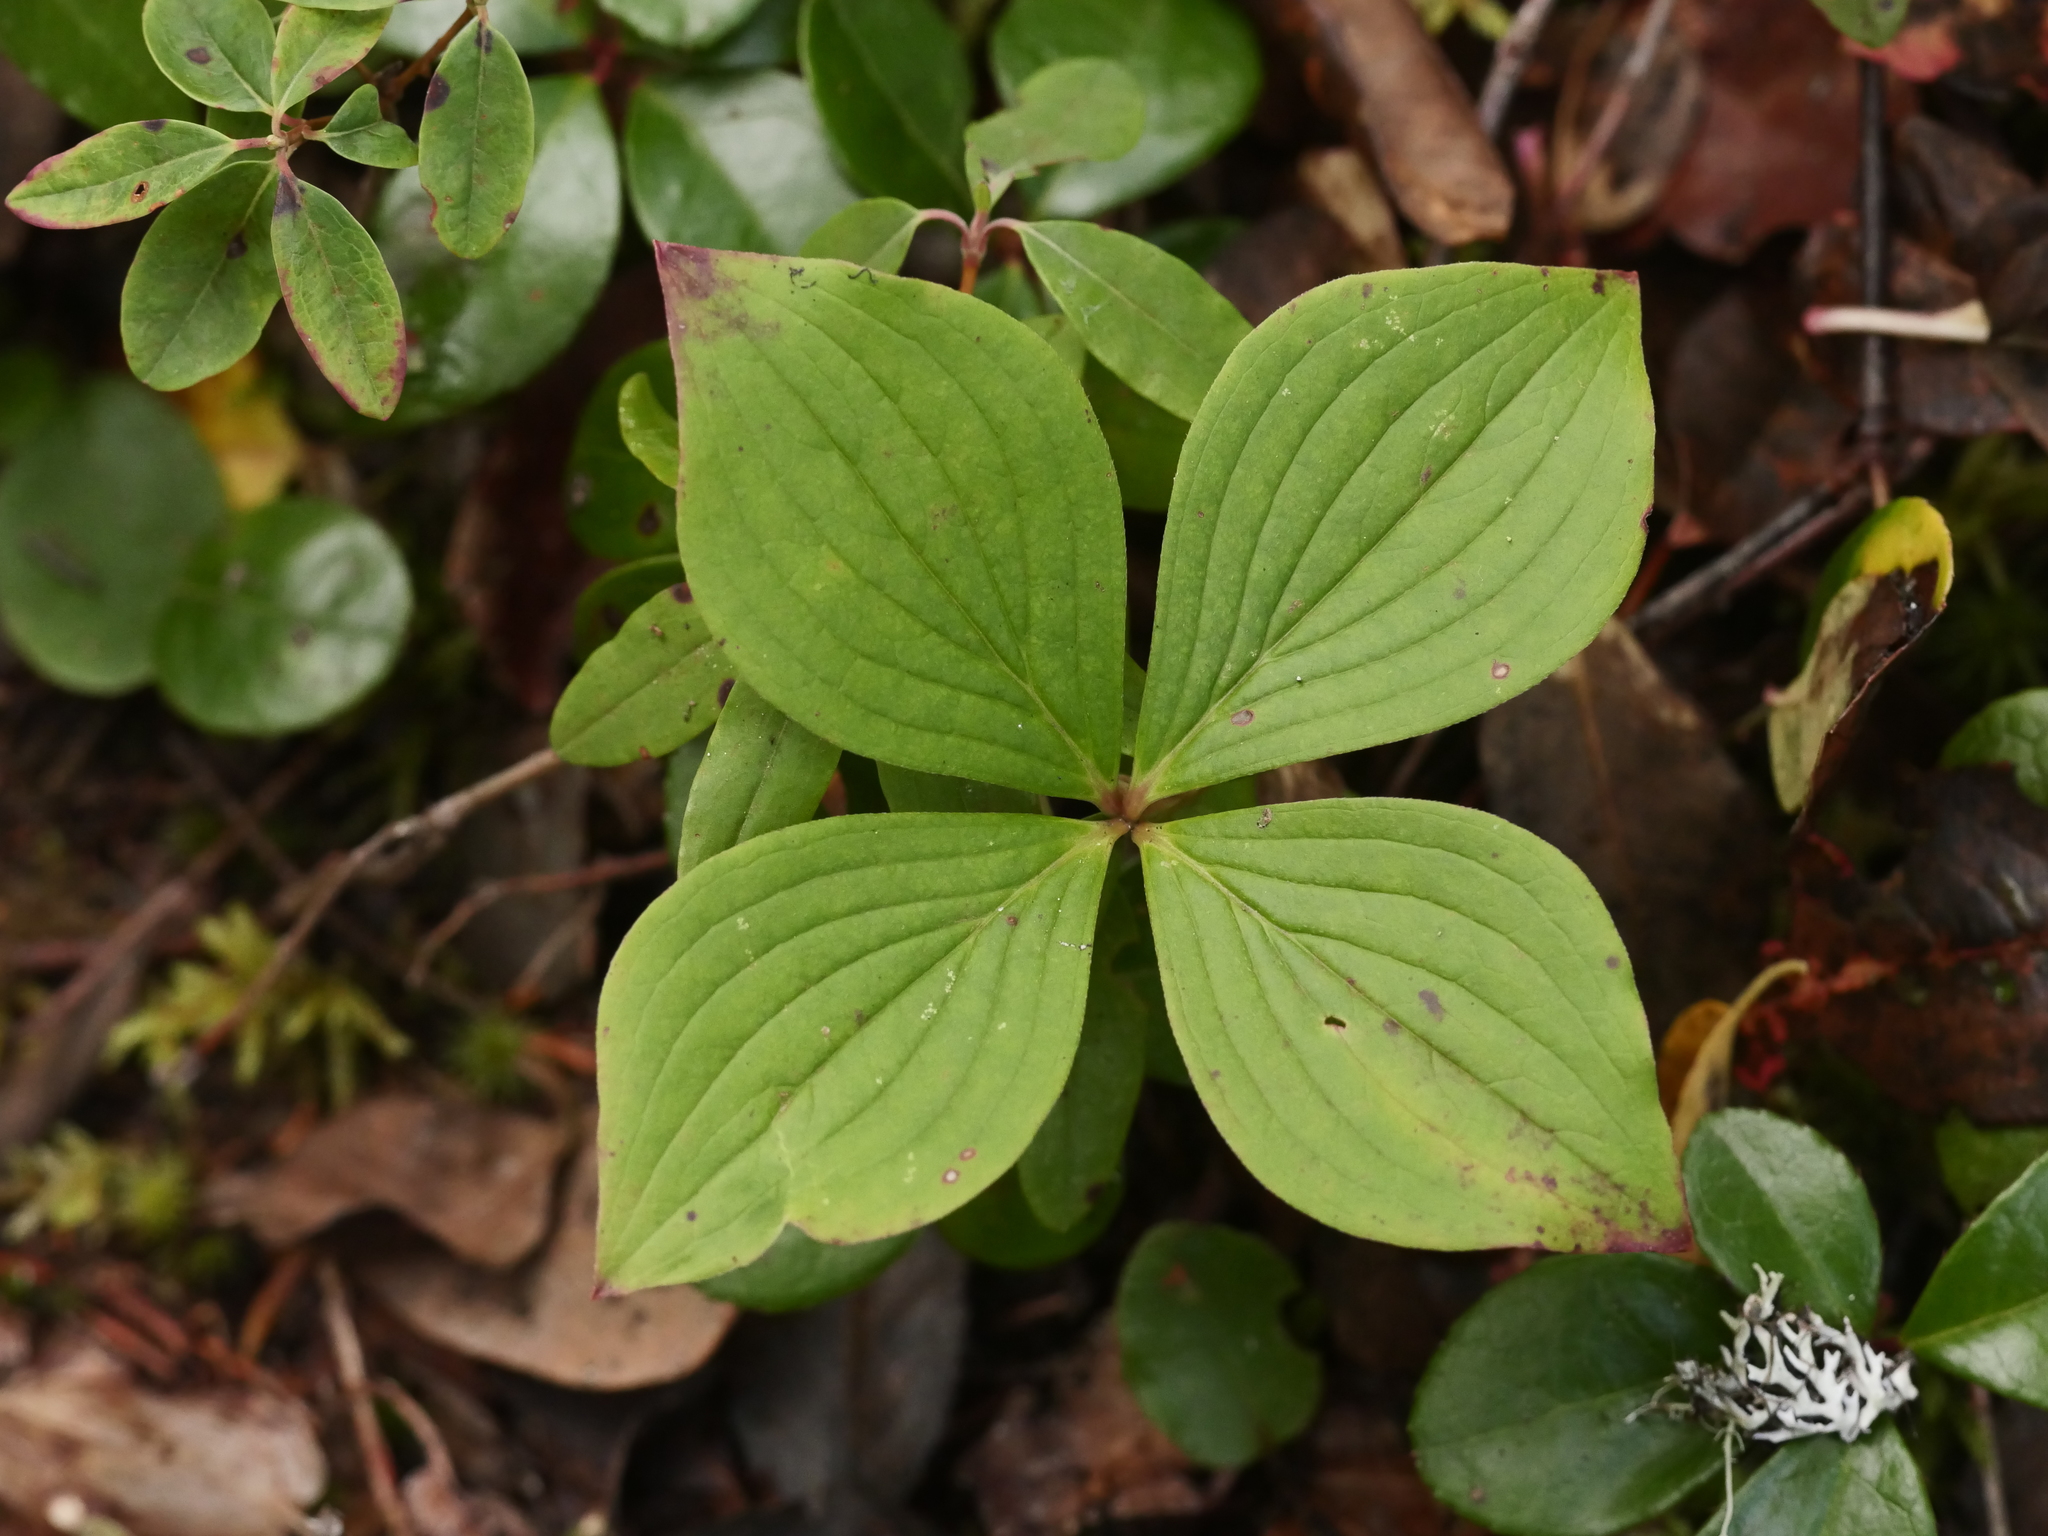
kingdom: Plantae
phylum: Tracheophyta
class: Magnoliopsida
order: Cornales
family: Cornaceae
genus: Cornus
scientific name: Cornus canadensis
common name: Creeping dogwood
